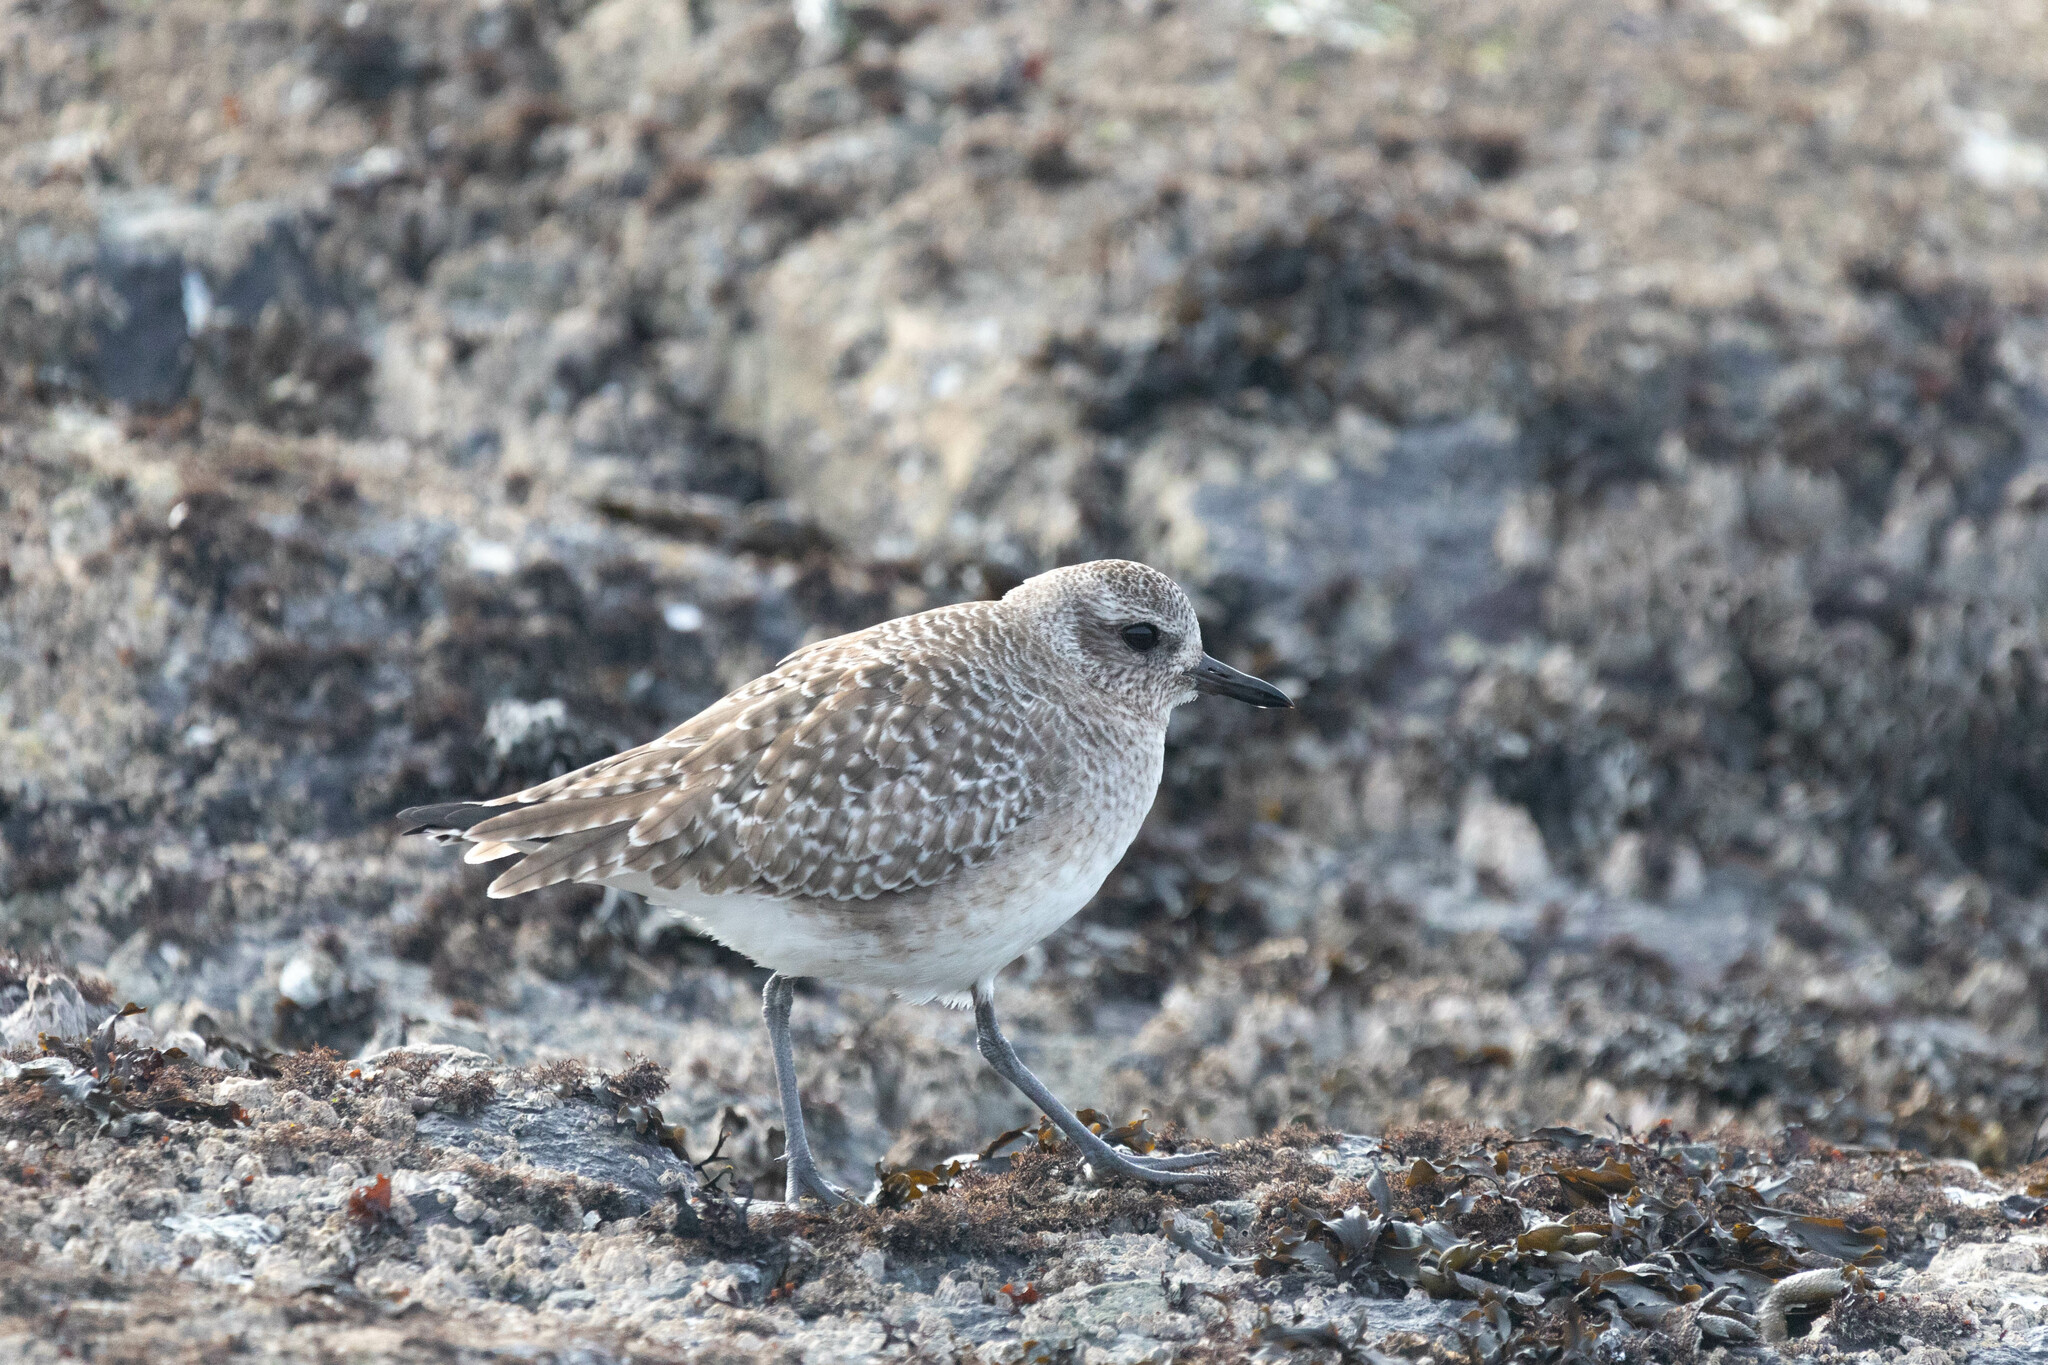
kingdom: Animalia
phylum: Chordata
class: Aves
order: Charadriiformes
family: Charadriidae
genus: Pluvialis
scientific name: Pluvialis squatarola
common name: Grey plover
